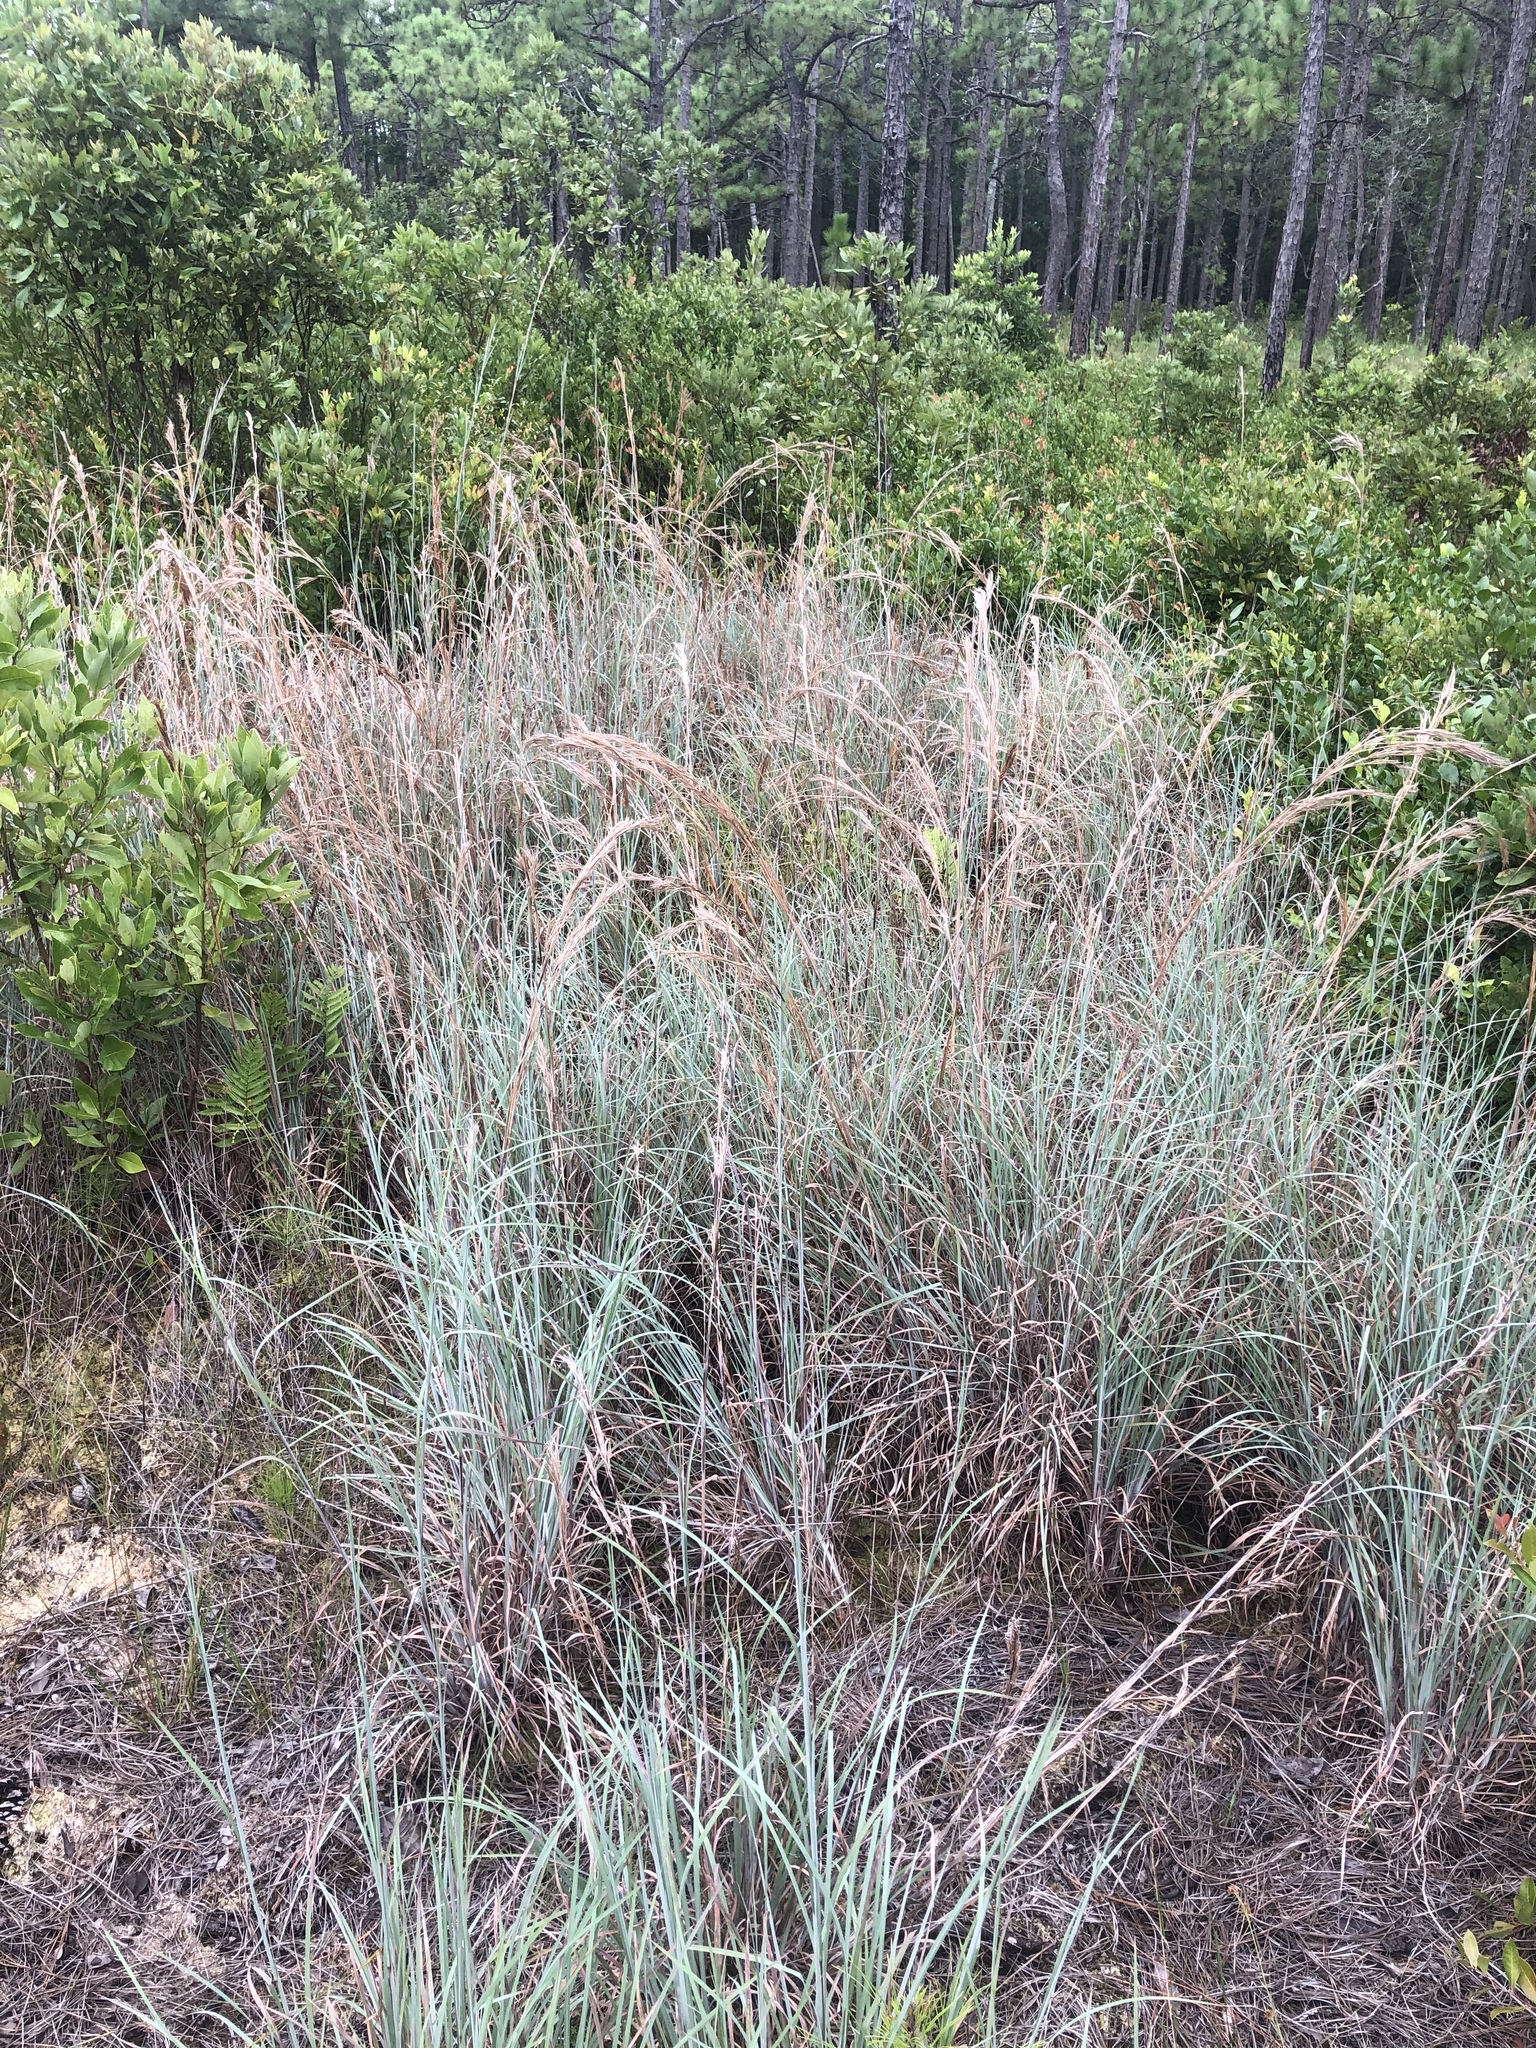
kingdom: Plantae
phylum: Tracheophyta
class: Liliopsida
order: Poales
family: Poaceae
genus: Andropogon
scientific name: Andropogon cretaceus
